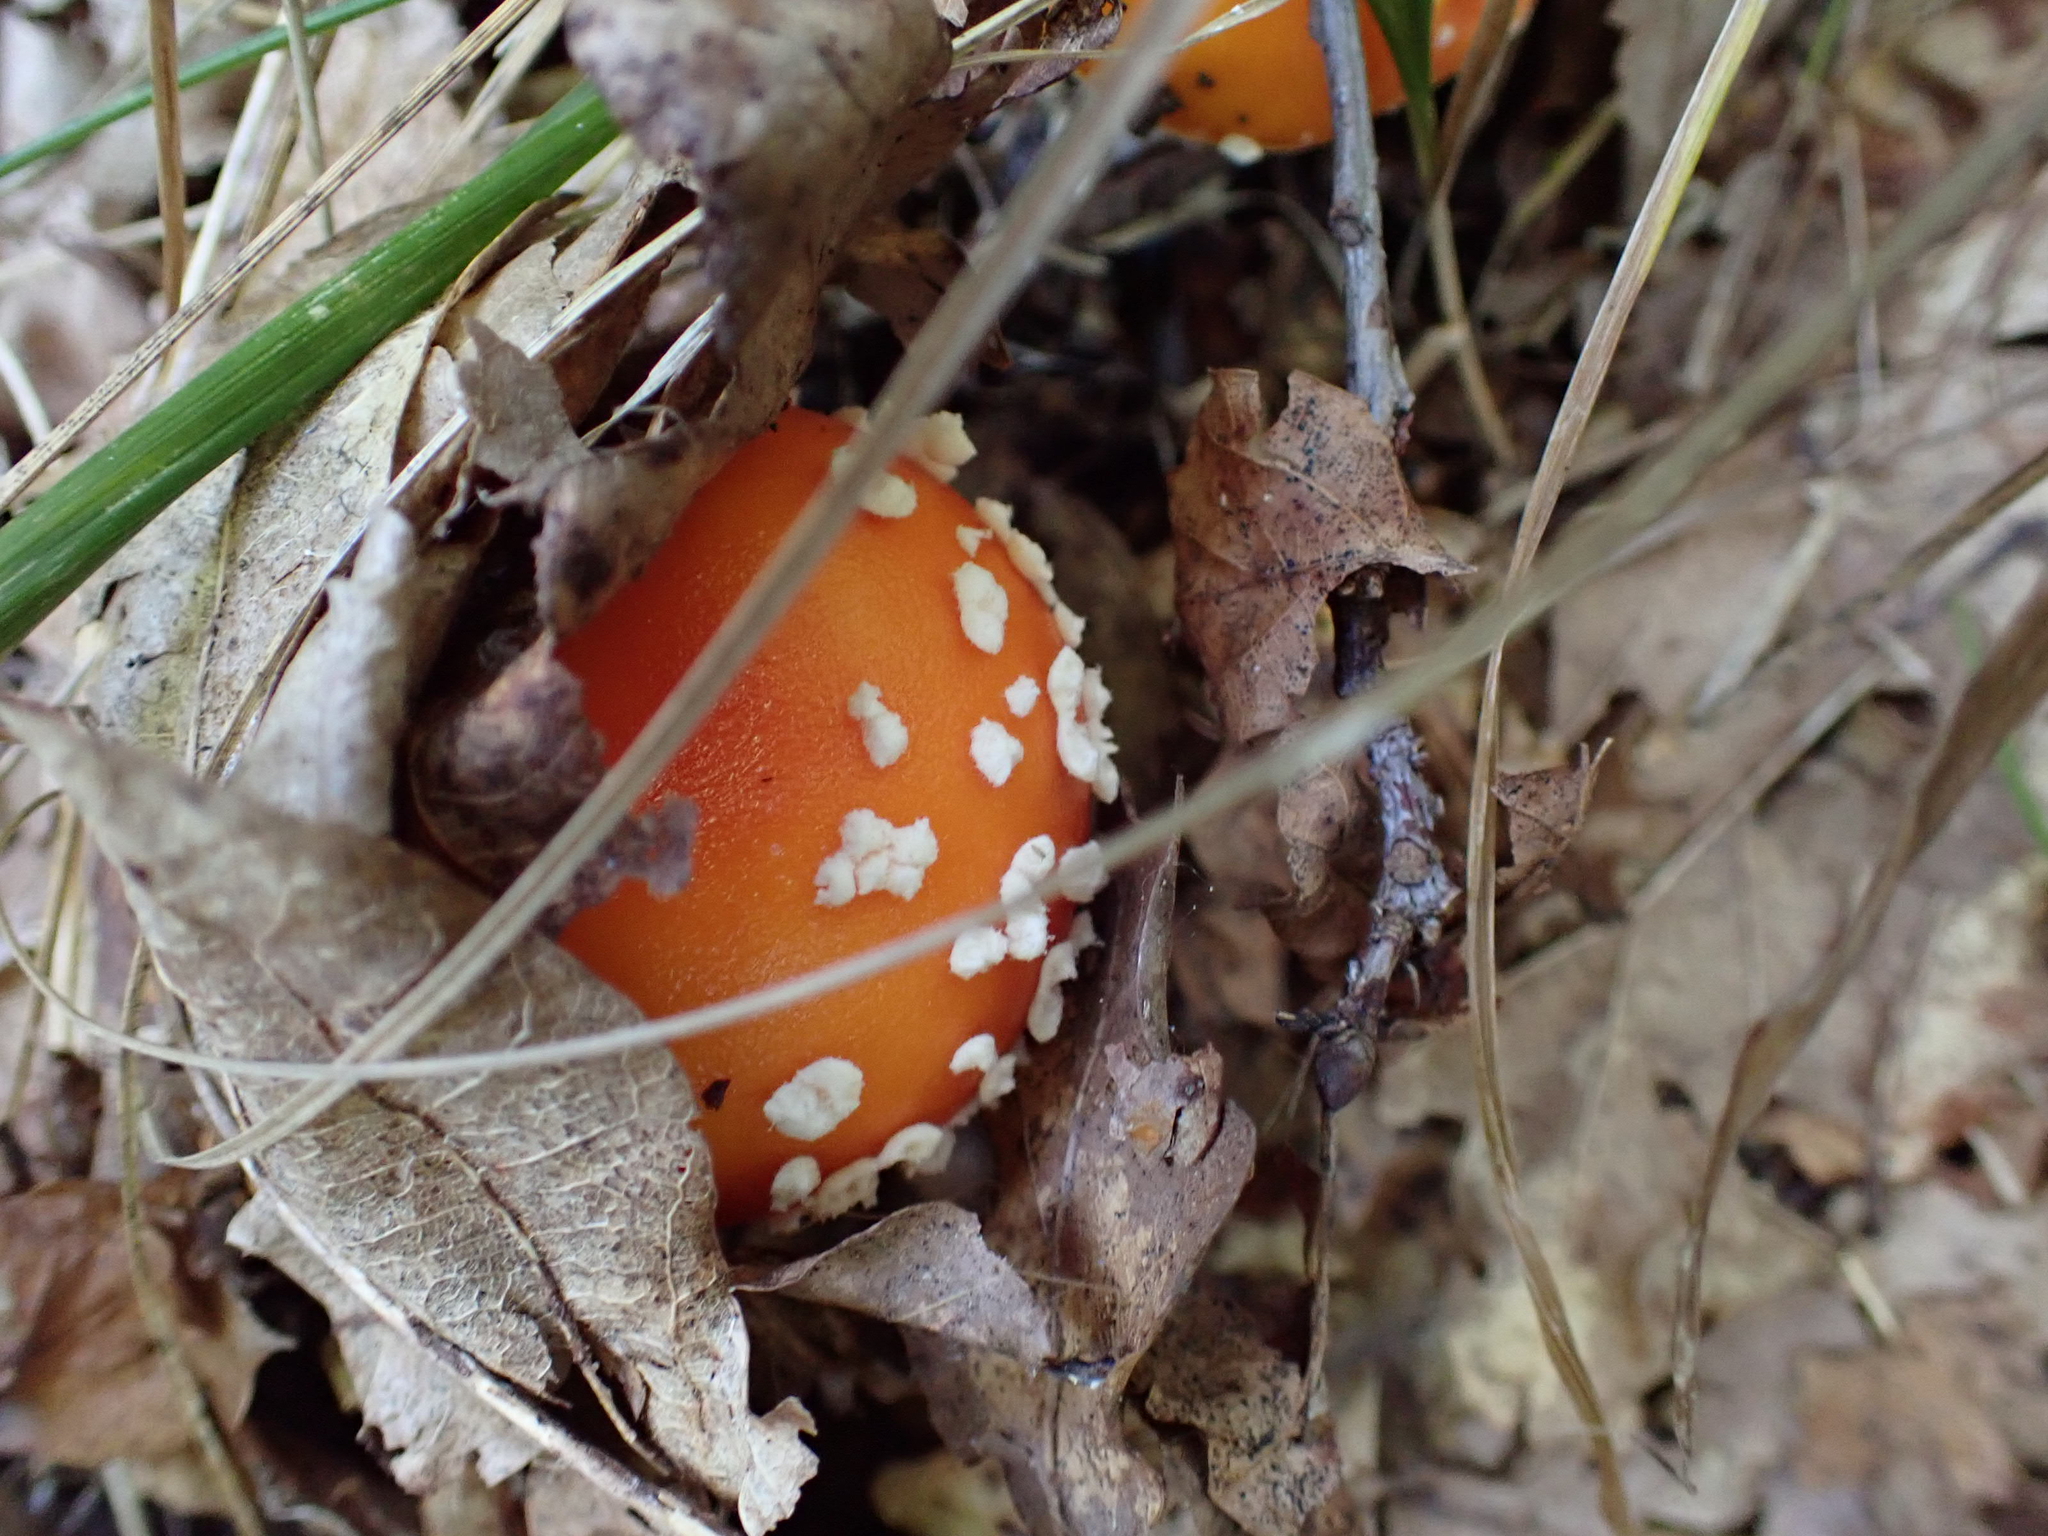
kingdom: Fungi
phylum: Basidiomycota
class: Agaricomycetes
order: Agaricales
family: Amanitaceae
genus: Amanita
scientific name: Amanita muscaria
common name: Fly agaric
